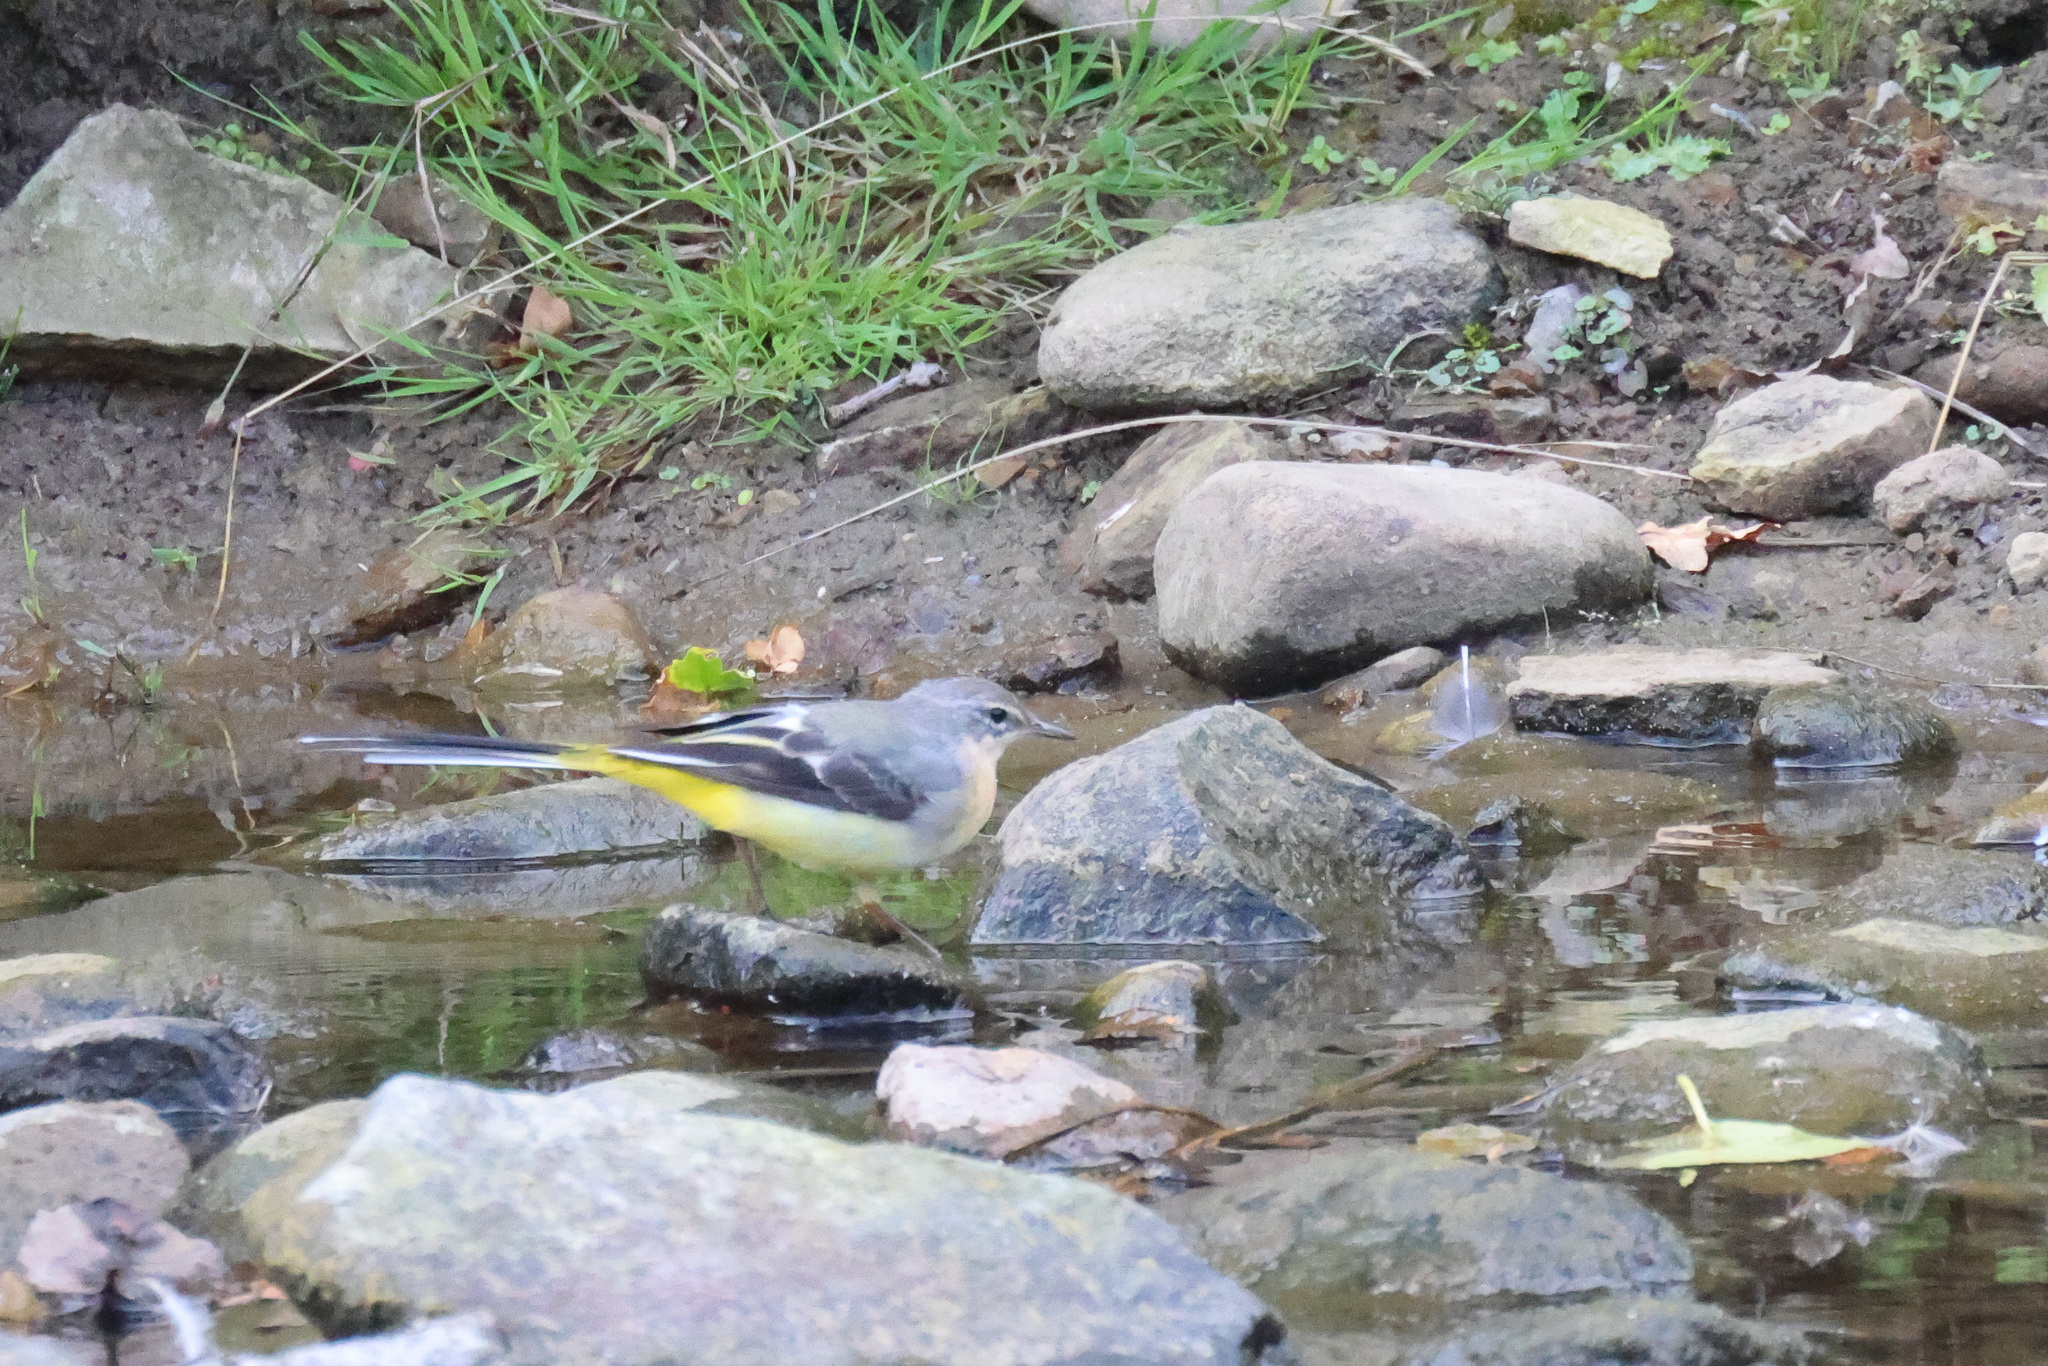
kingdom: Animalia
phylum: Chordata
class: Aves
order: Passeriformes
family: Motacillidae
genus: Motacilla
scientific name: Motacilla cinerea
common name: Grey wagtail
